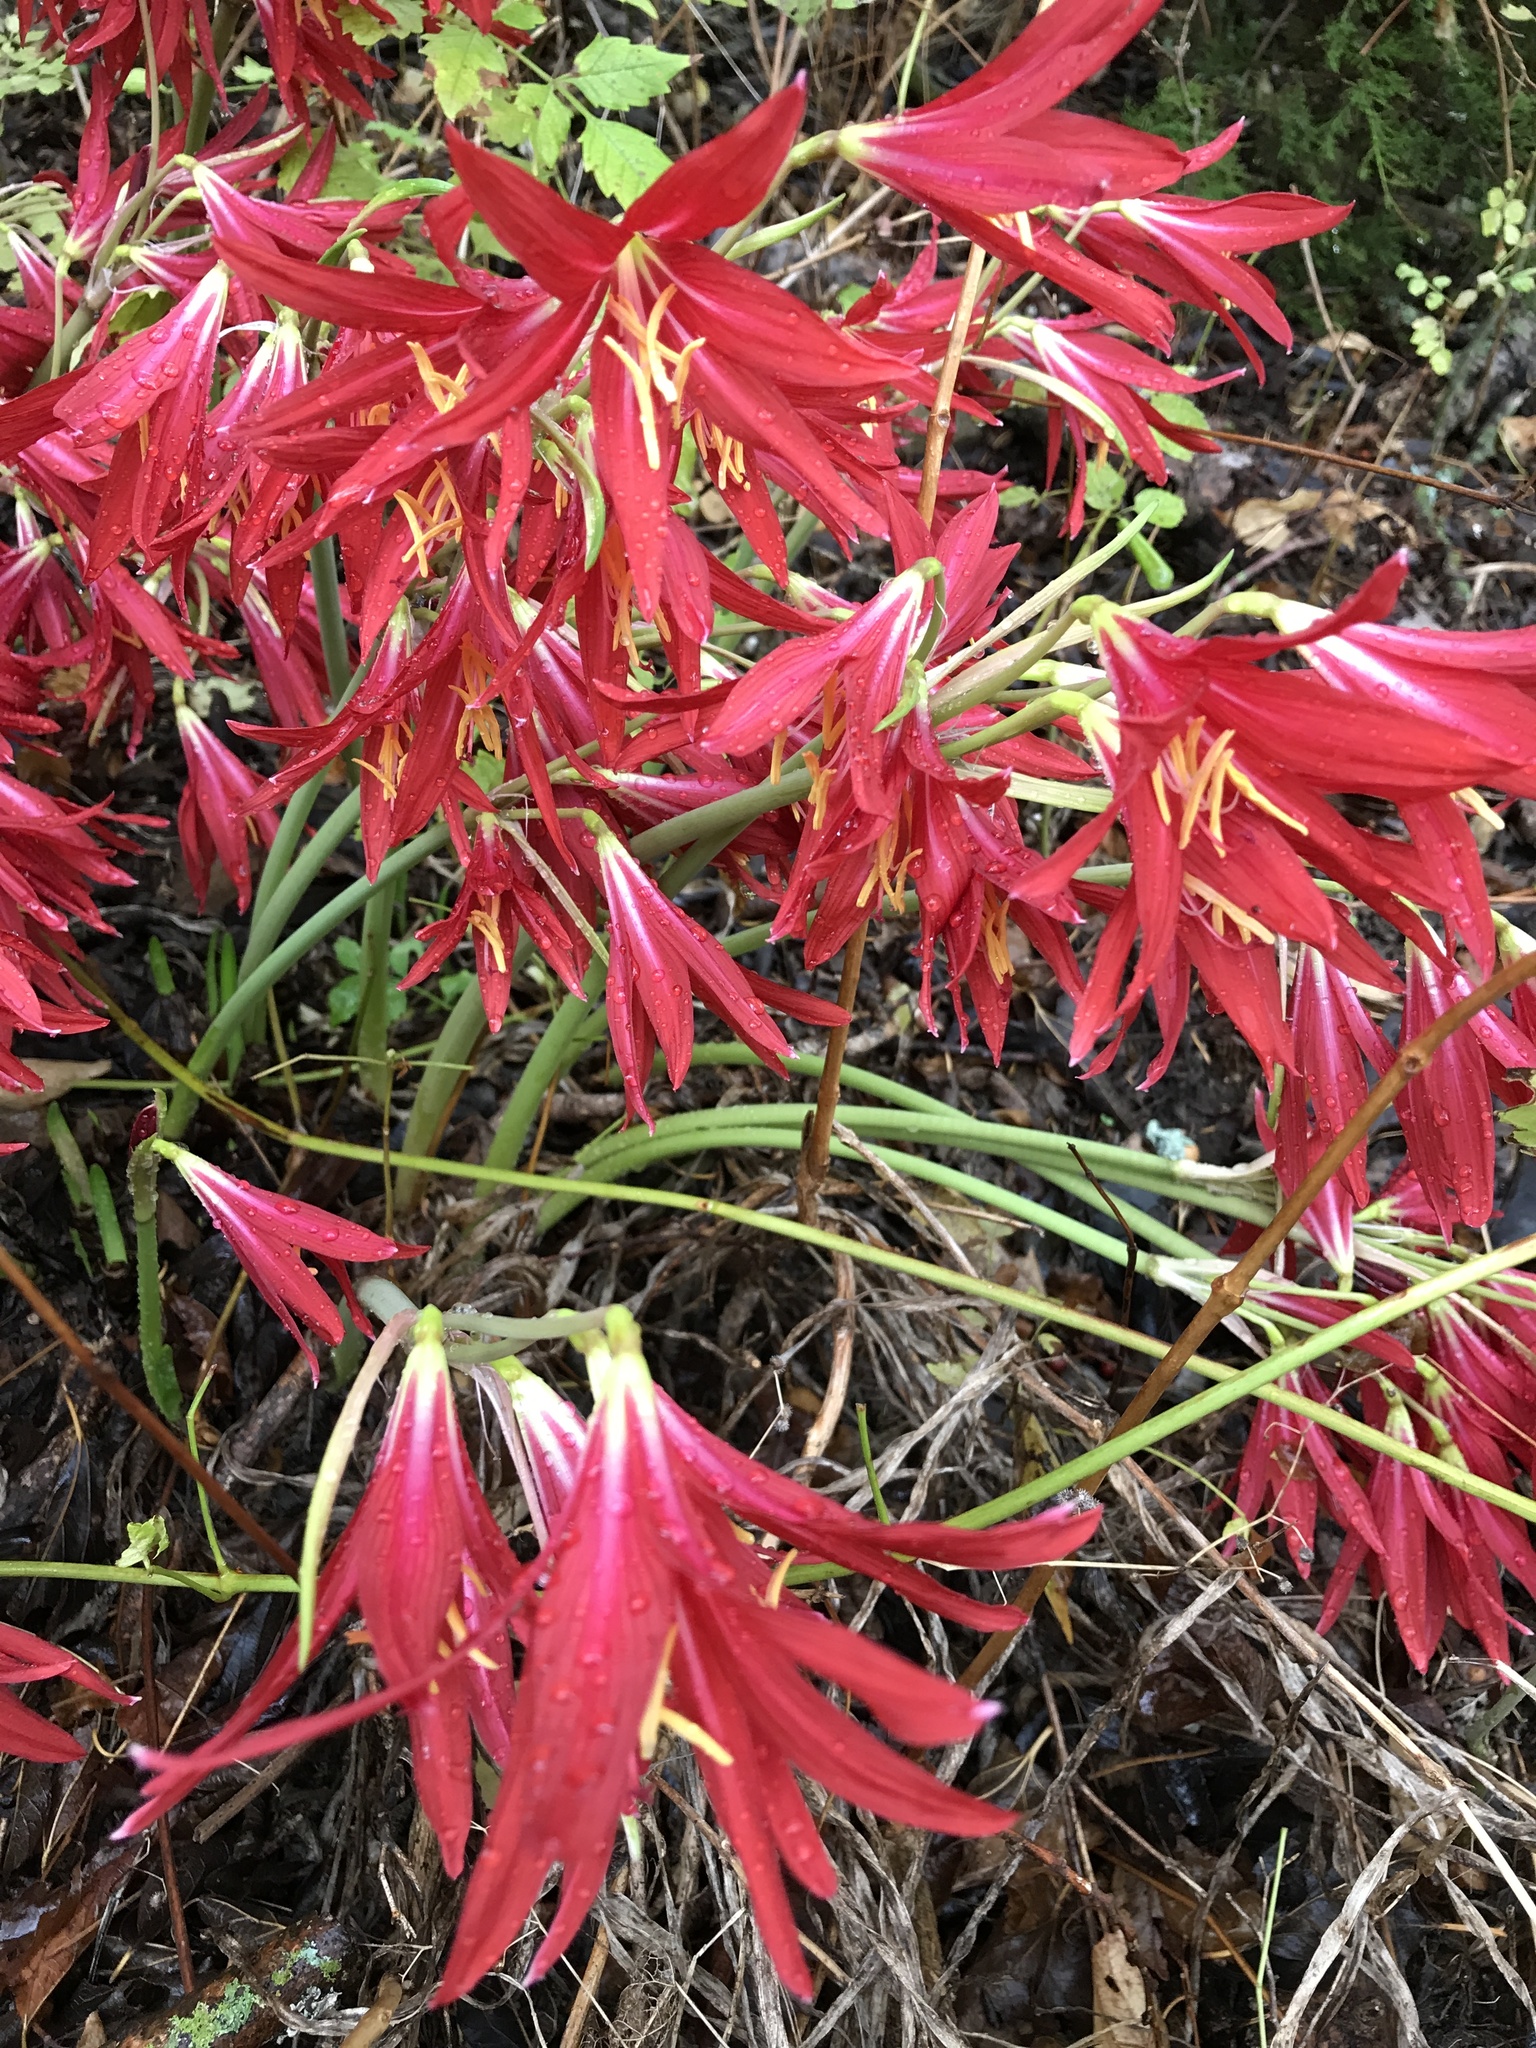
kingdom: Plantae
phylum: Tracheophyta
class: Liliopsida
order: Asparagales
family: Amaryllidaceae
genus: Zephyranthes
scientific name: Zephyranthes bifida
